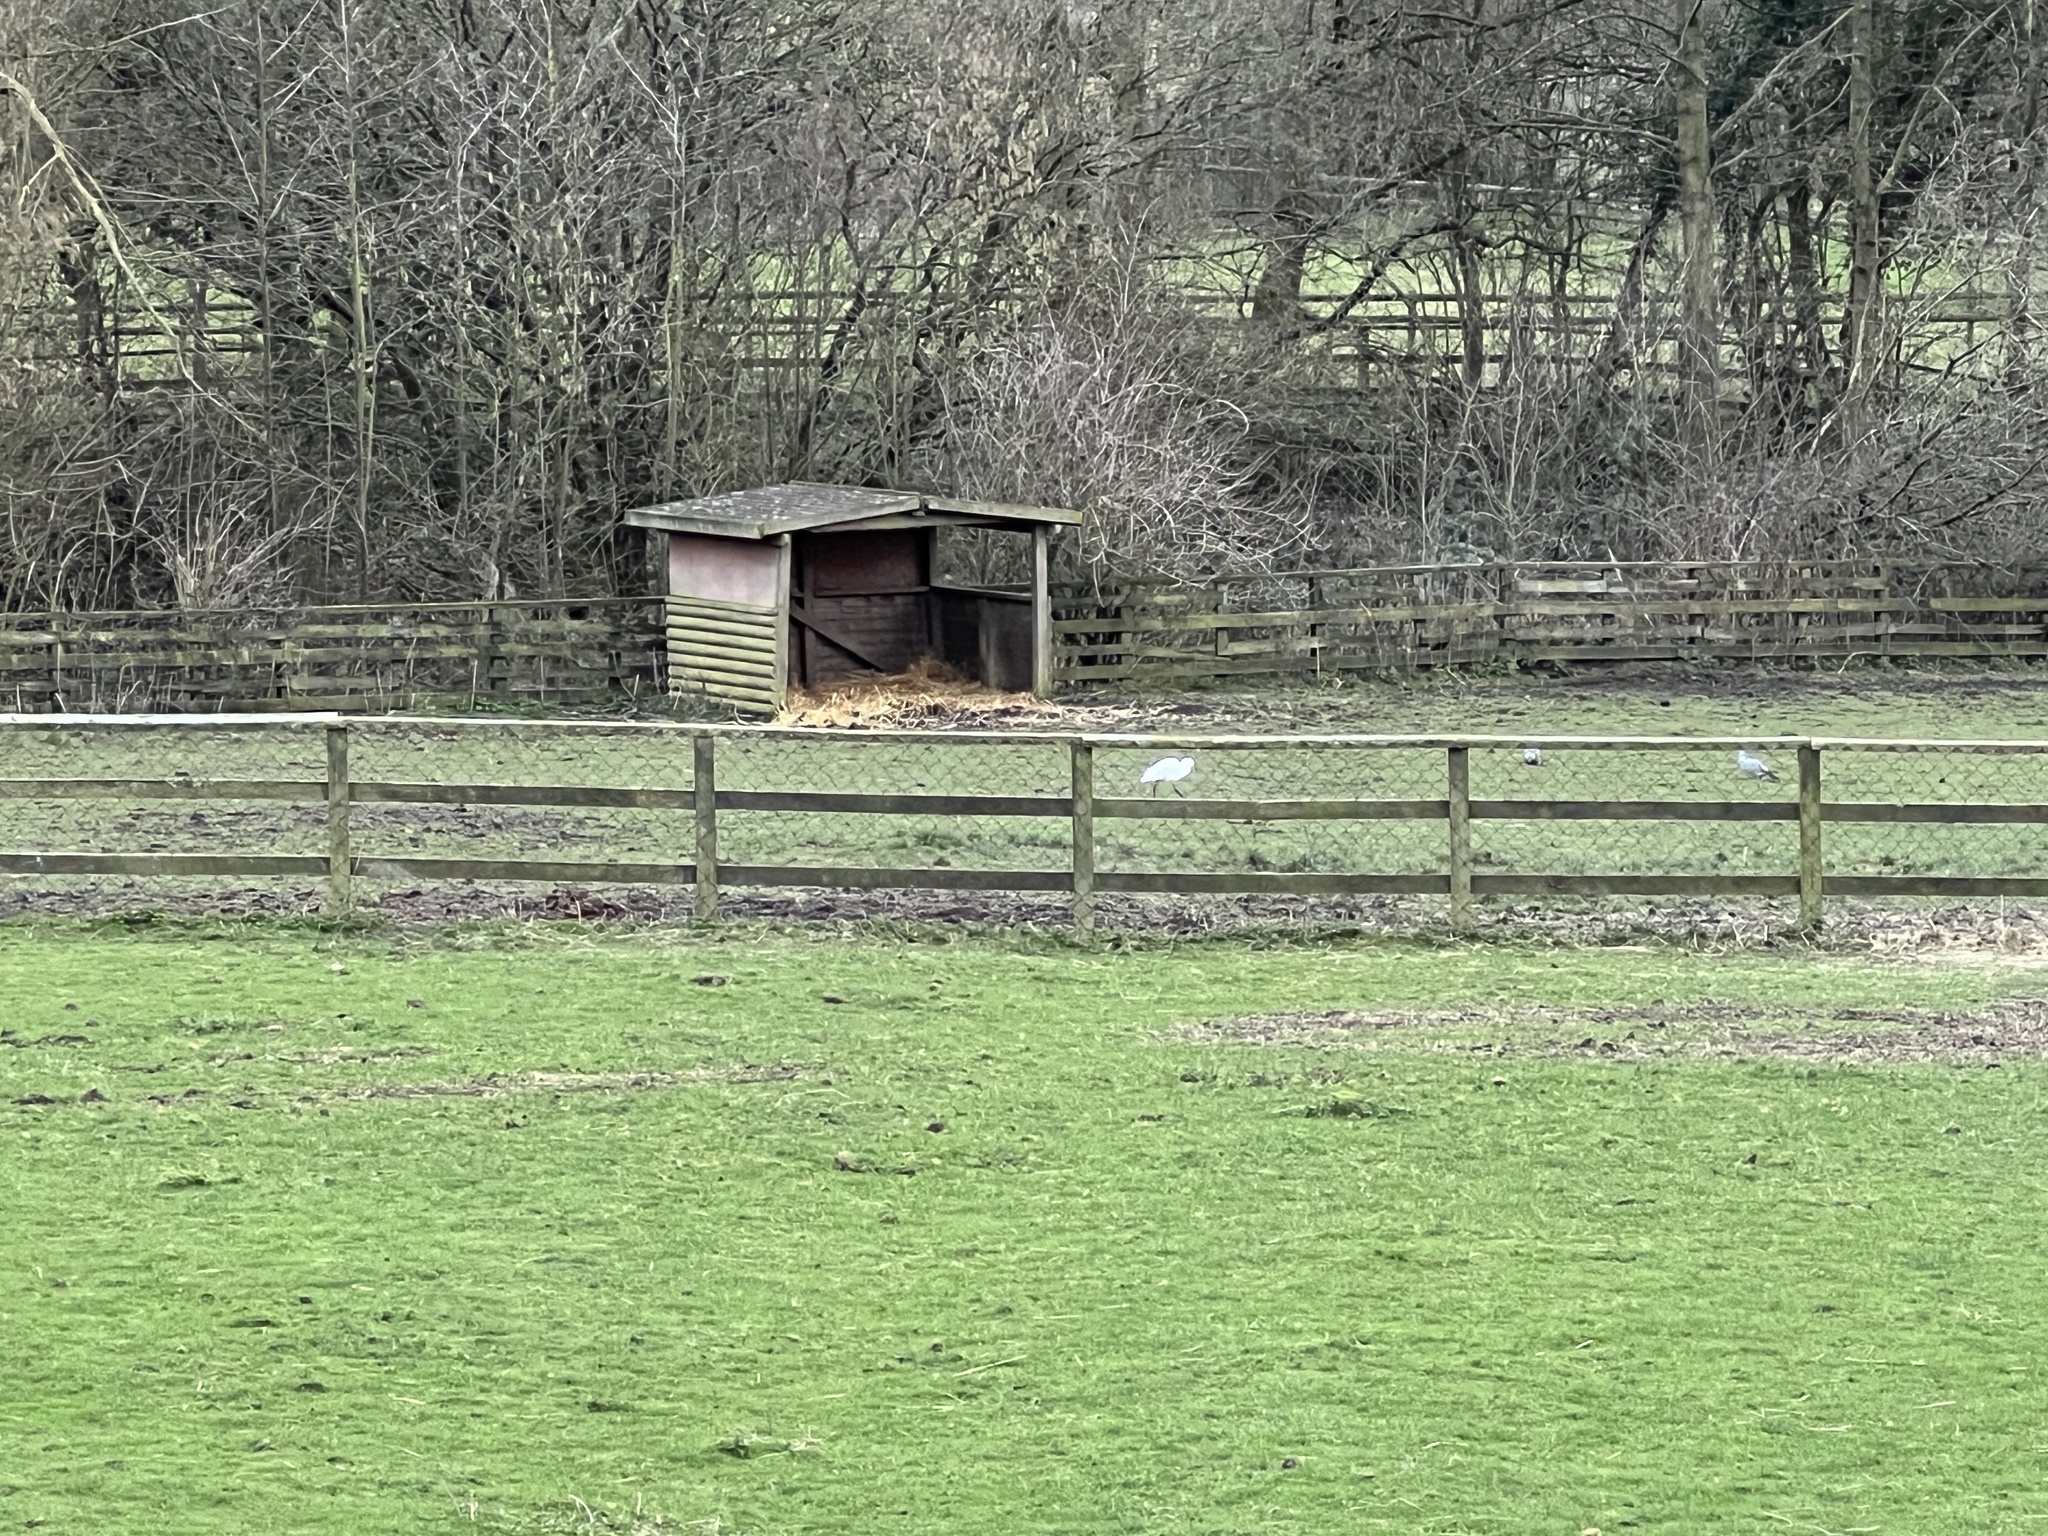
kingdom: Animalia
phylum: Chordata
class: Aves
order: Pelecaniformes
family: Ardeidae
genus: Egretta
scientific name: Egretta garzetta
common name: Little egret
